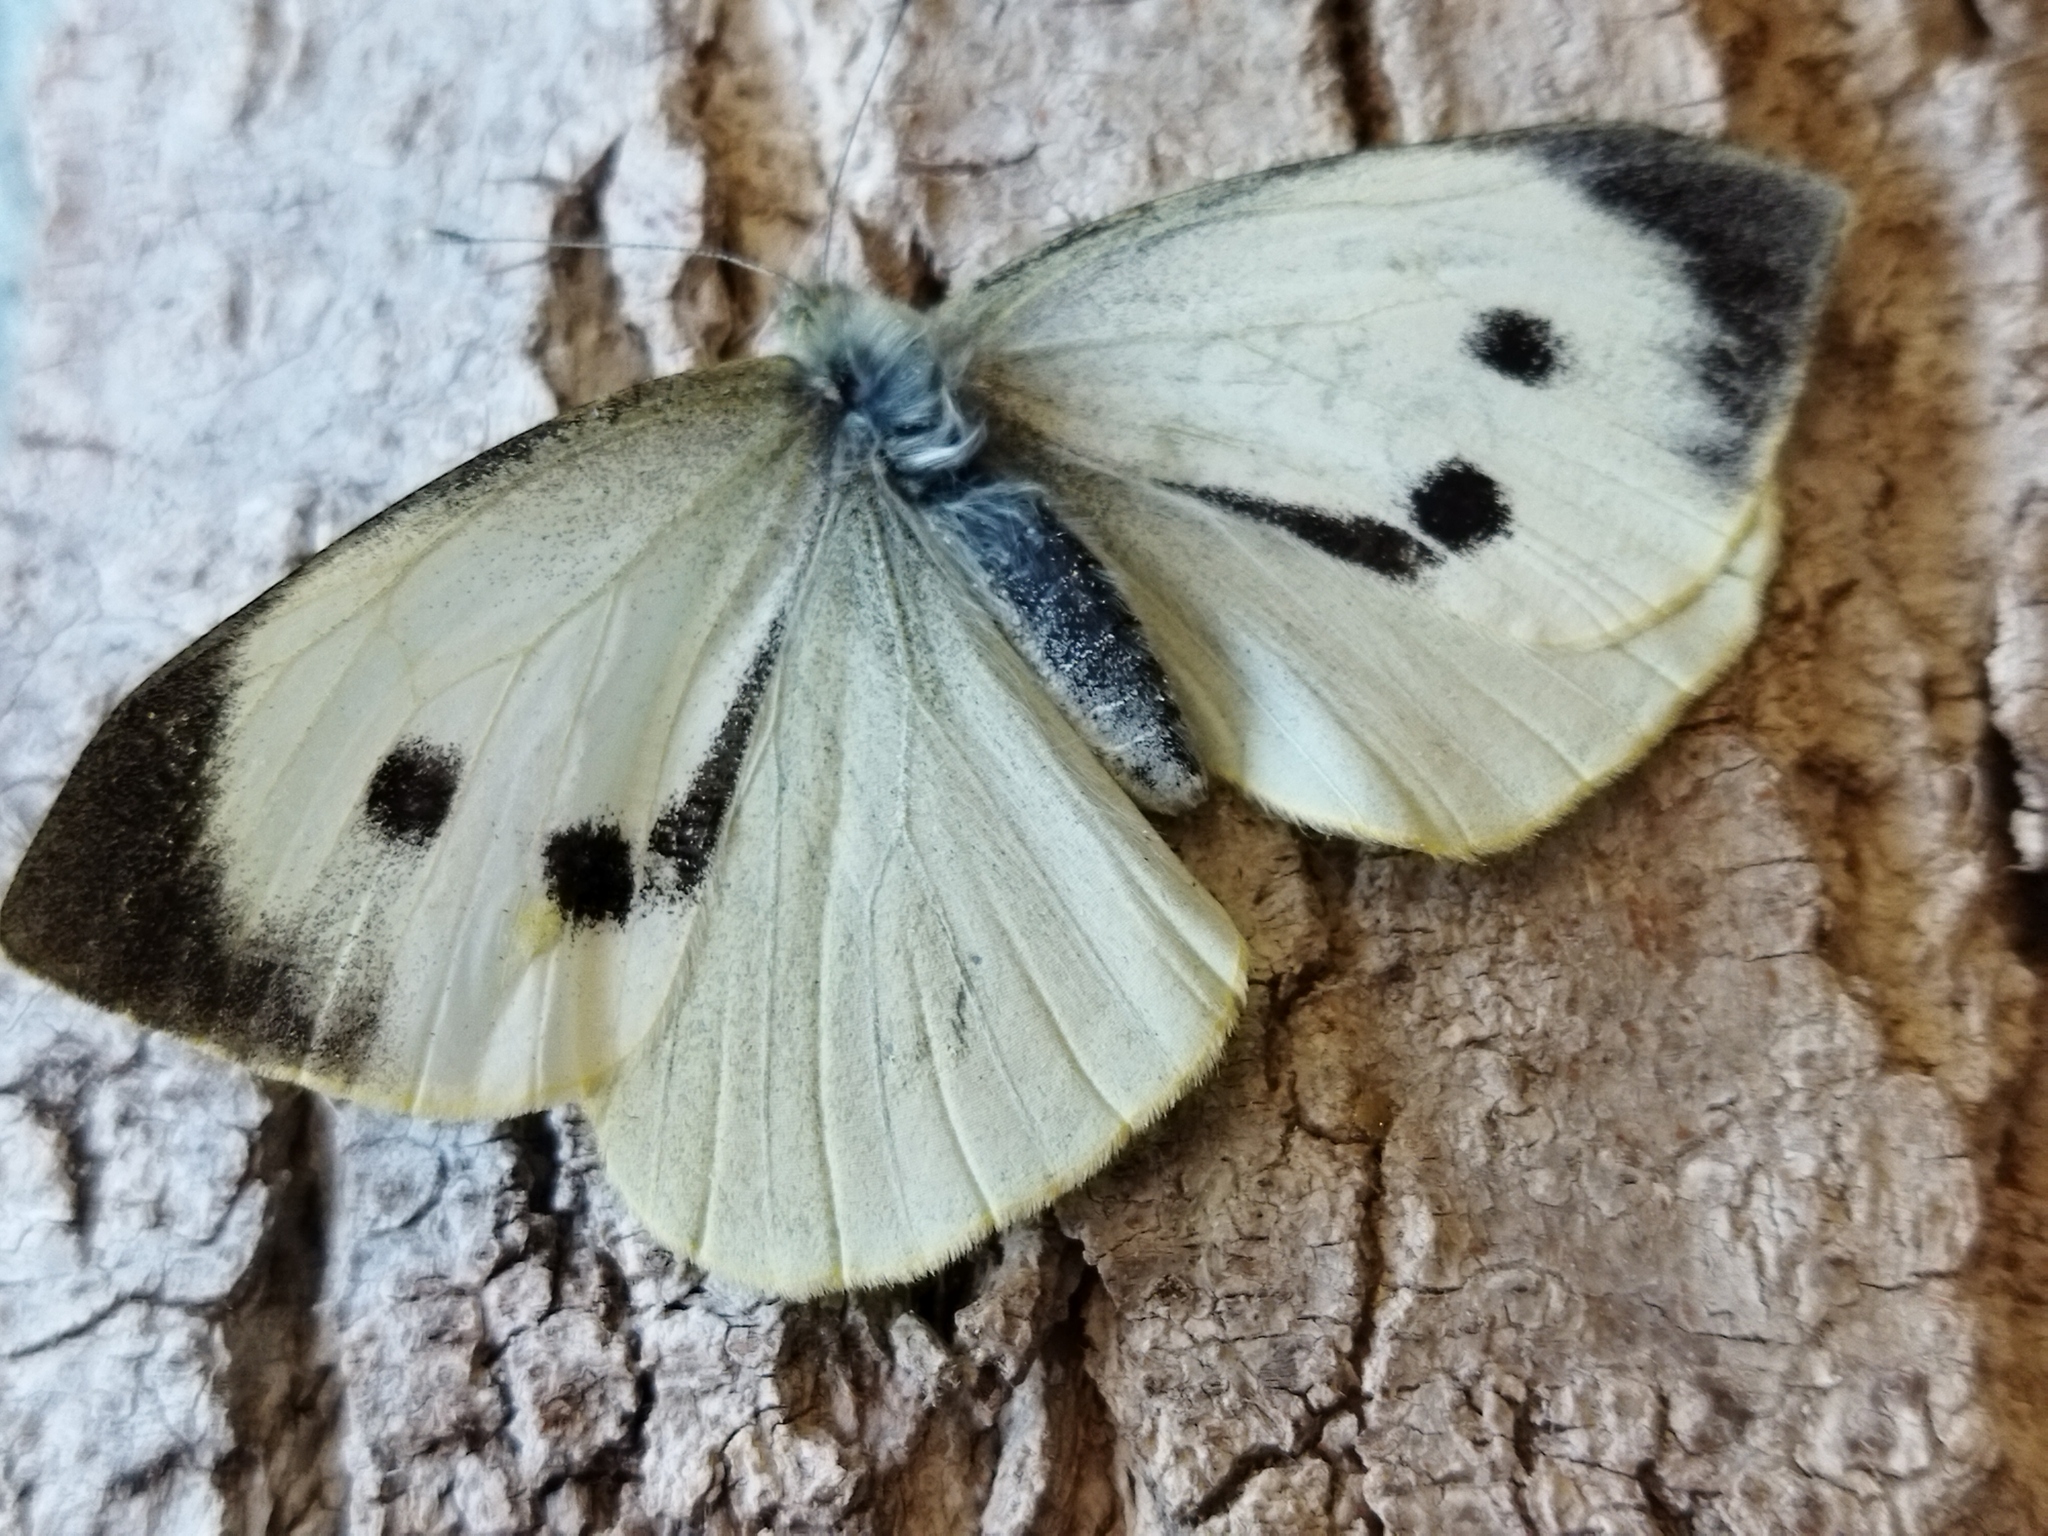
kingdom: Animalia
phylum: Arthropoda
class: Insecta
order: Lepidoptera
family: Pieridae
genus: Pieris
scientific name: Pieris brassicae
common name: Large white
